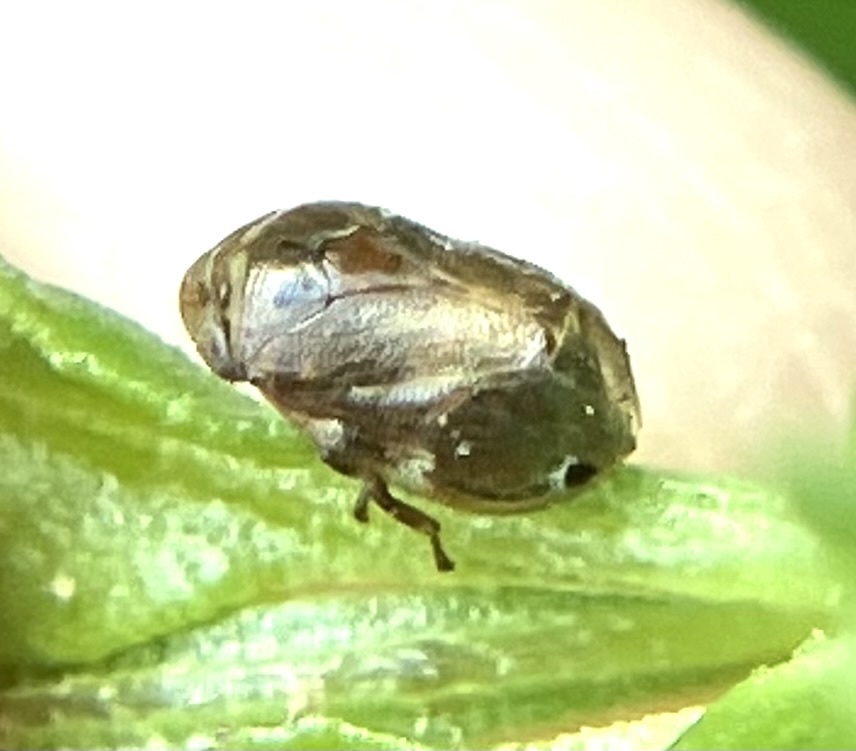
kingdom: Animalia
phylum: Arthropoda
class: Insecta
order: Hemiptera
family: Clastopteridae
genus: Clastoptera
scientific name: Clastoptera xanthocephala
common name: Sunflower spittlebug
